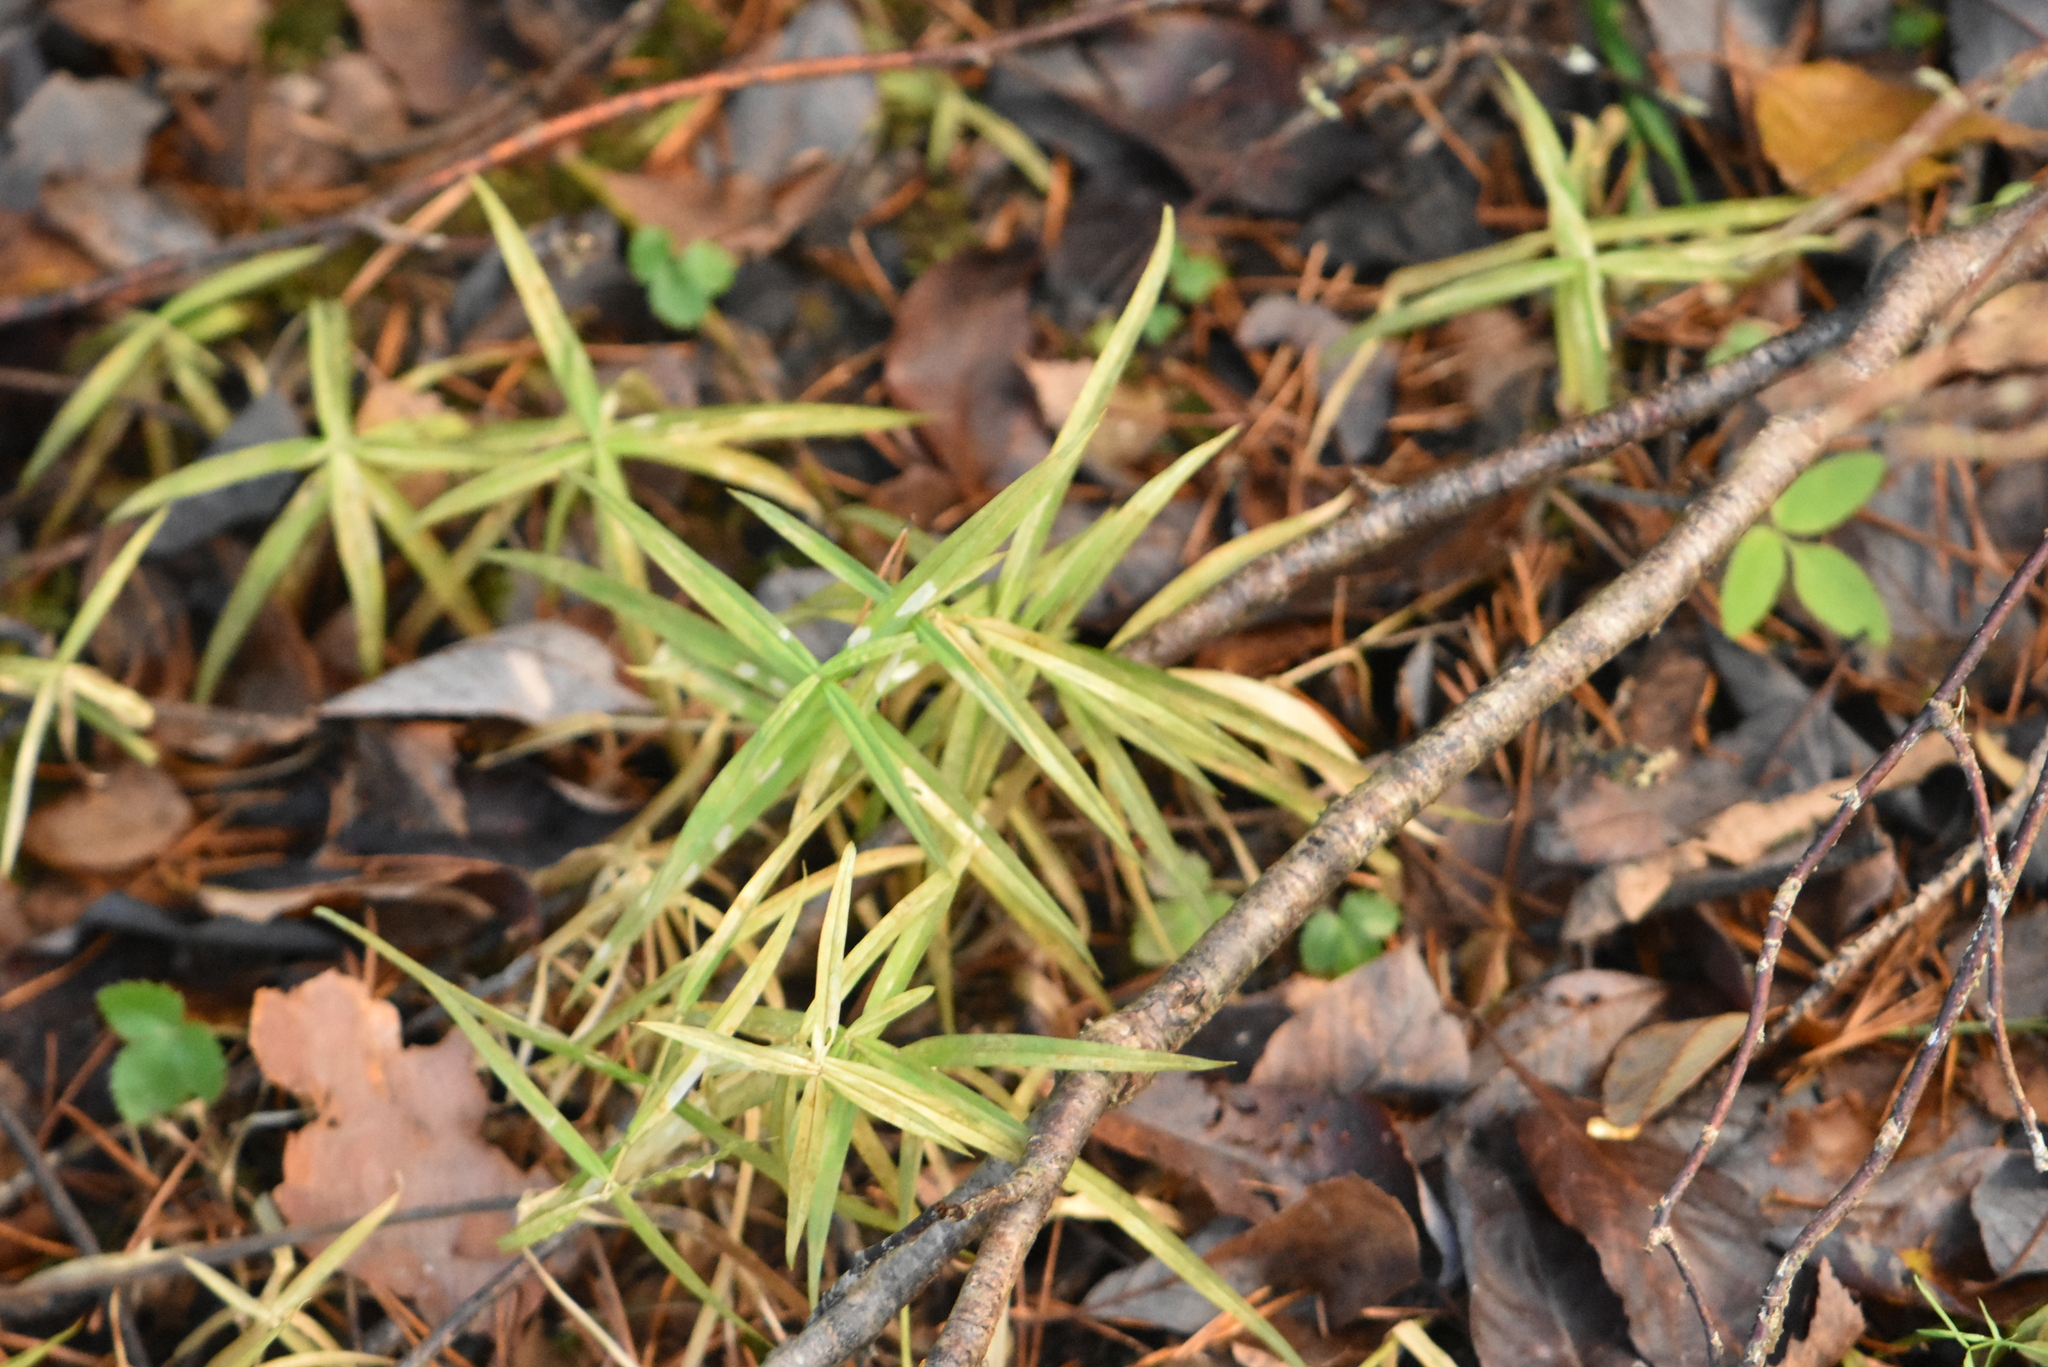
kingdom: Plantae
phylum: Tracheophyta
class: Magnoliopsida
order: Caryophyllales
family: Caryophyllaceae
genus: Rabelera
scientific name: Rabelera holostea
